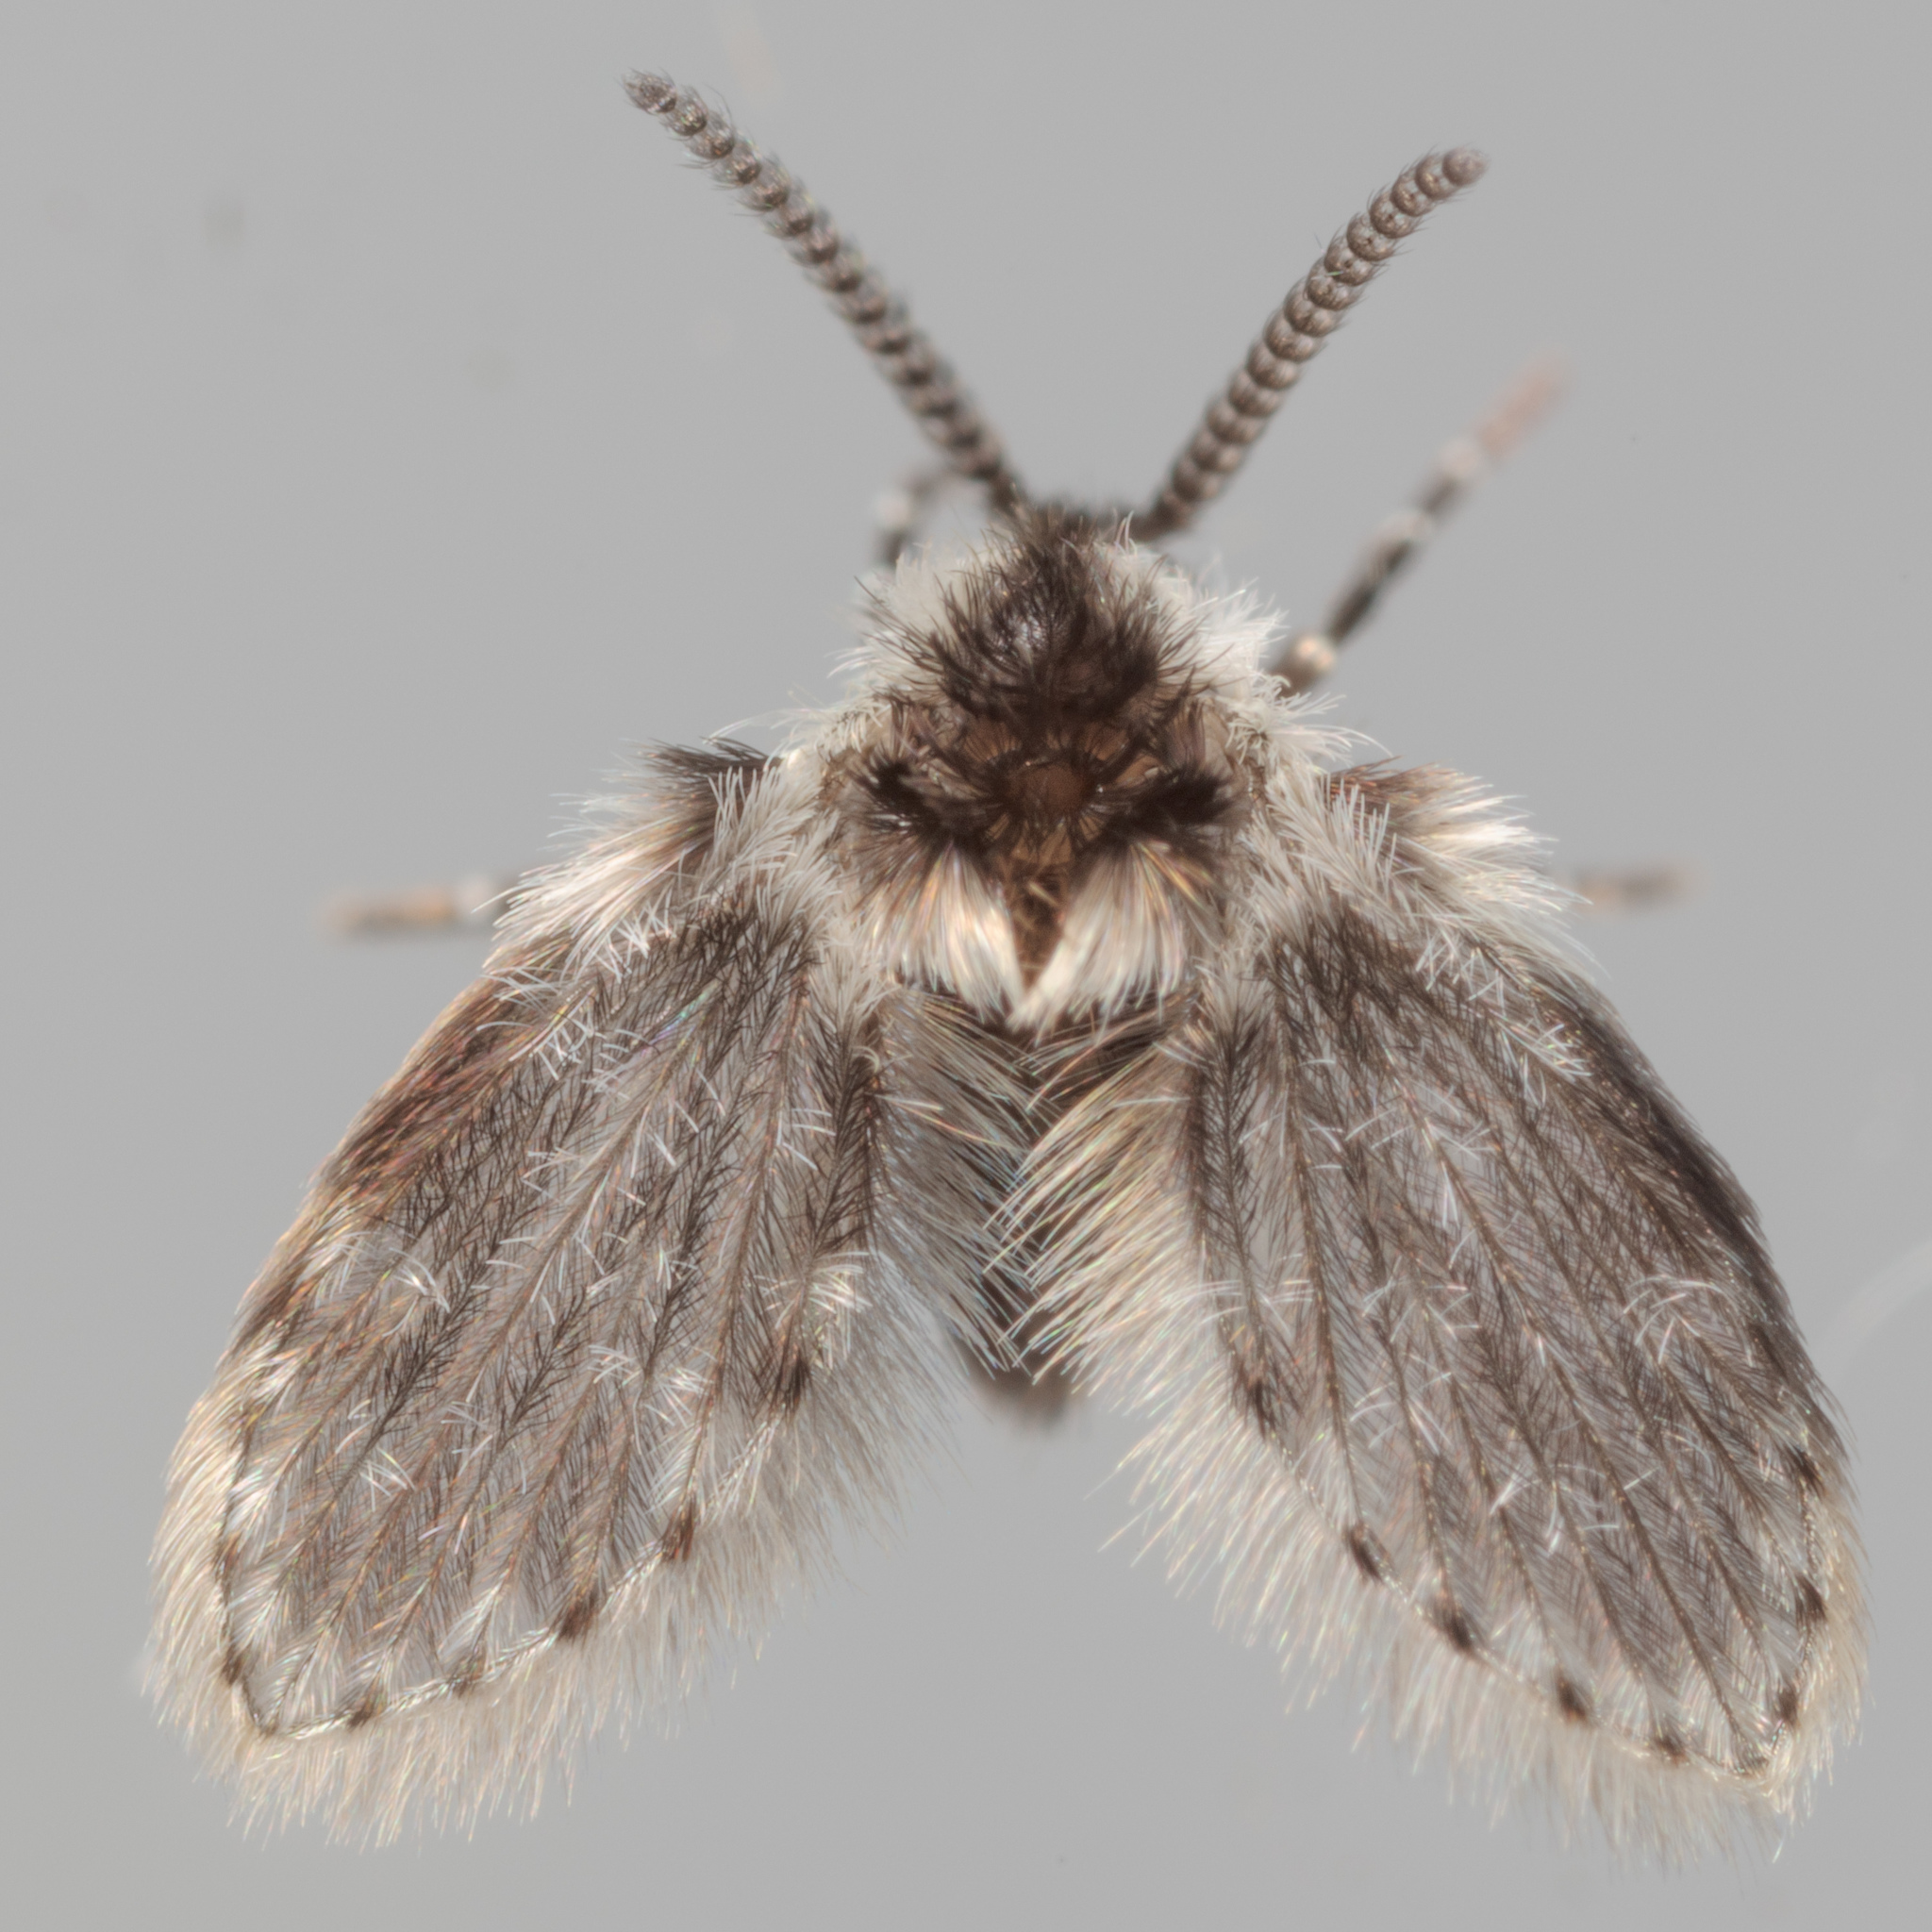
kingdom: Animalia
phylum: Arthropoda
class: Insecta
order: Diptera
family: Psychodidae
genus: Lepiseodina
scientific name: Lepiseodina
